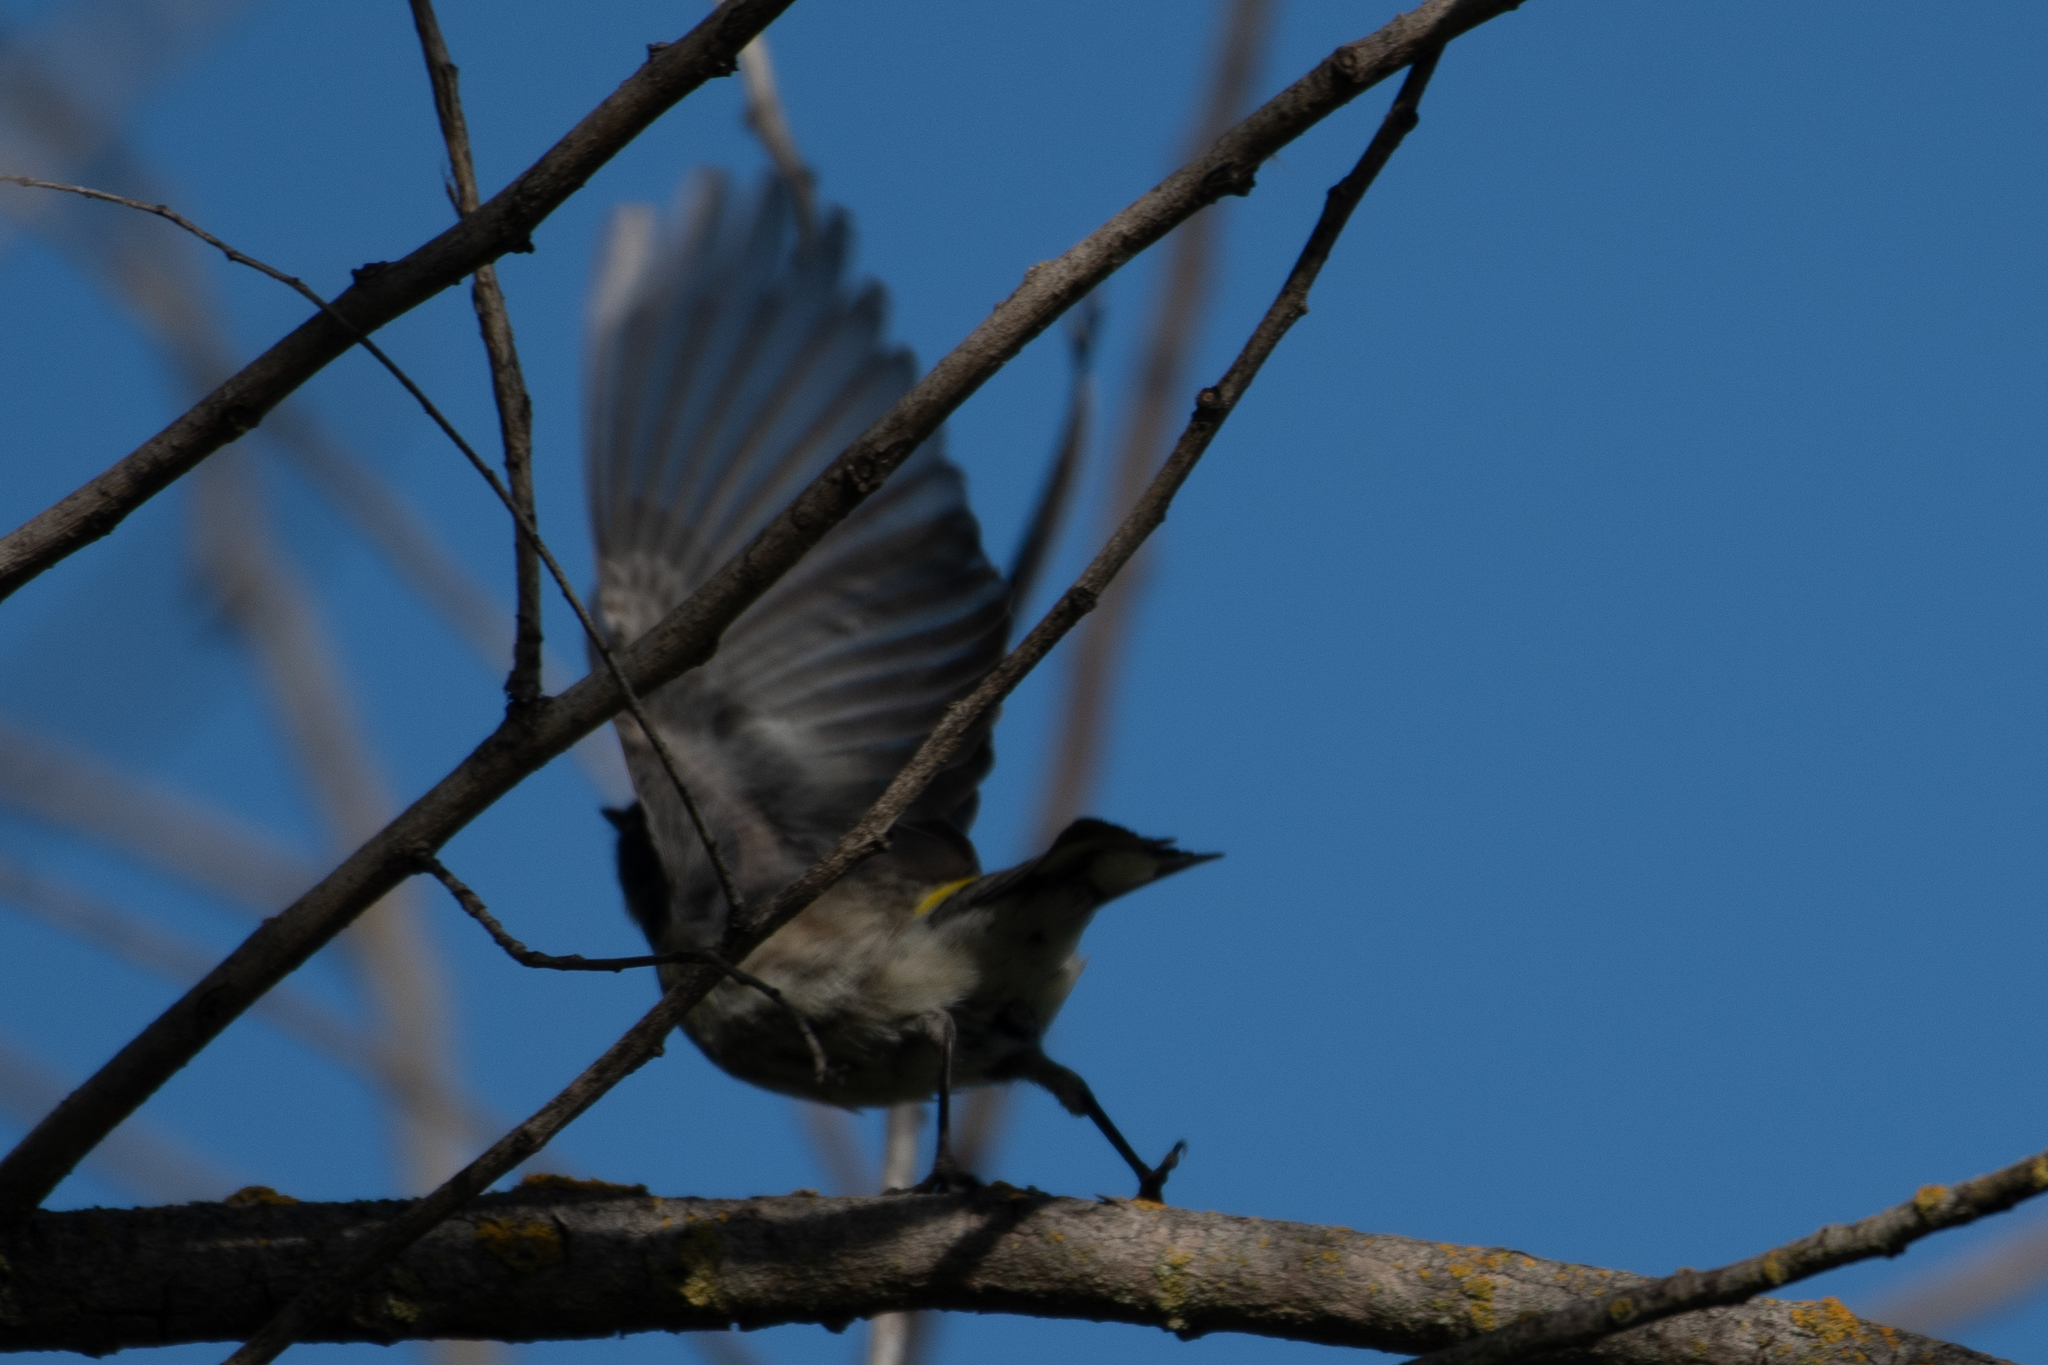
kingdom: Animalia
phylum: Chordata
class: Aves
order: Passeriformes
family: Parulidae
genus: Setophaga
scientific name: Setophaga coronata
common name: Myrtle warbler
